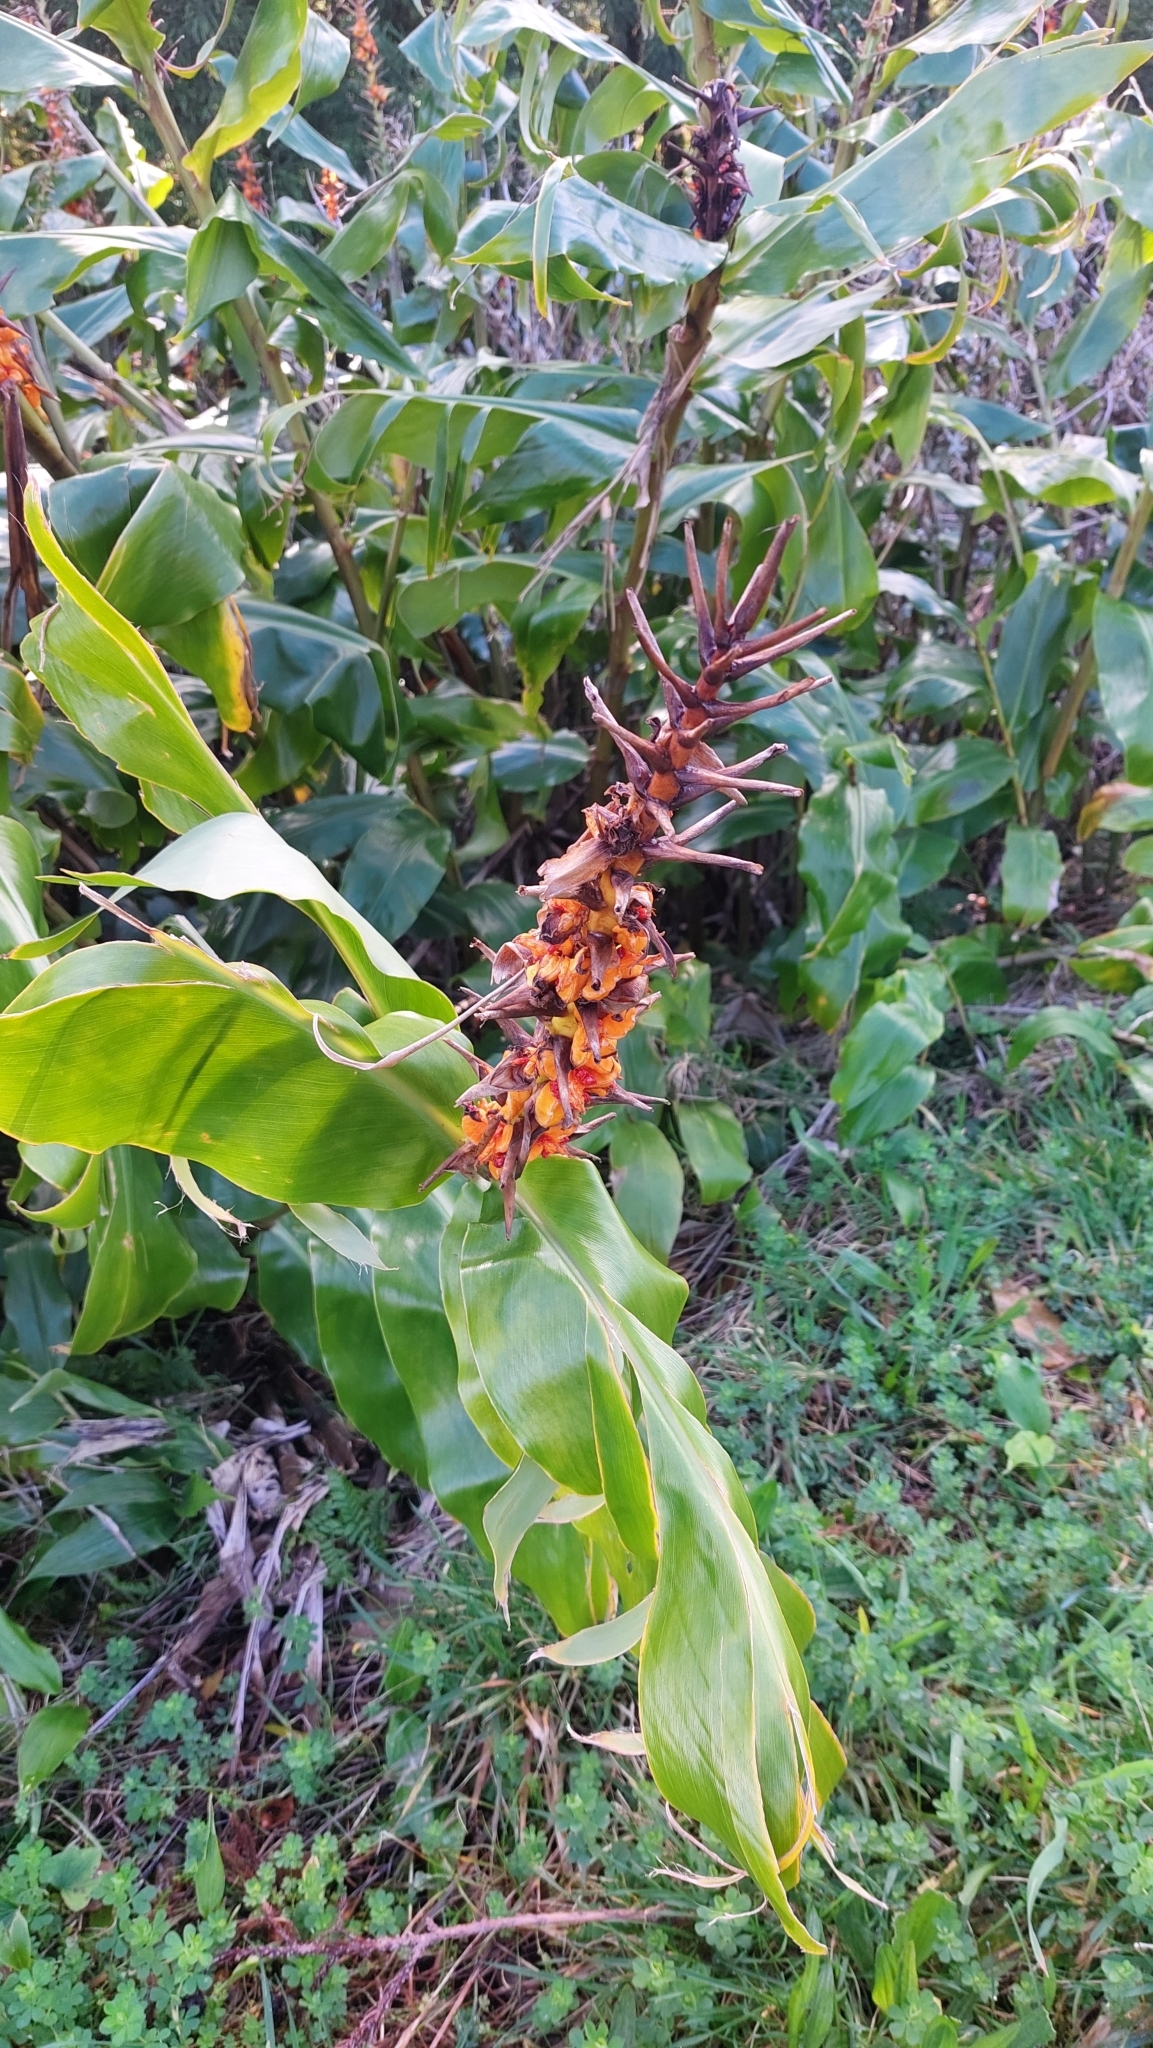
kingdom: Plantae
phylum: Tracheophyta
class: Liliopsida
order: Zingiberales
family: Zingiberaceae
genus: Hedychium
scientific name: Hedychium gardnerianum
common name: Himalayan ginger
